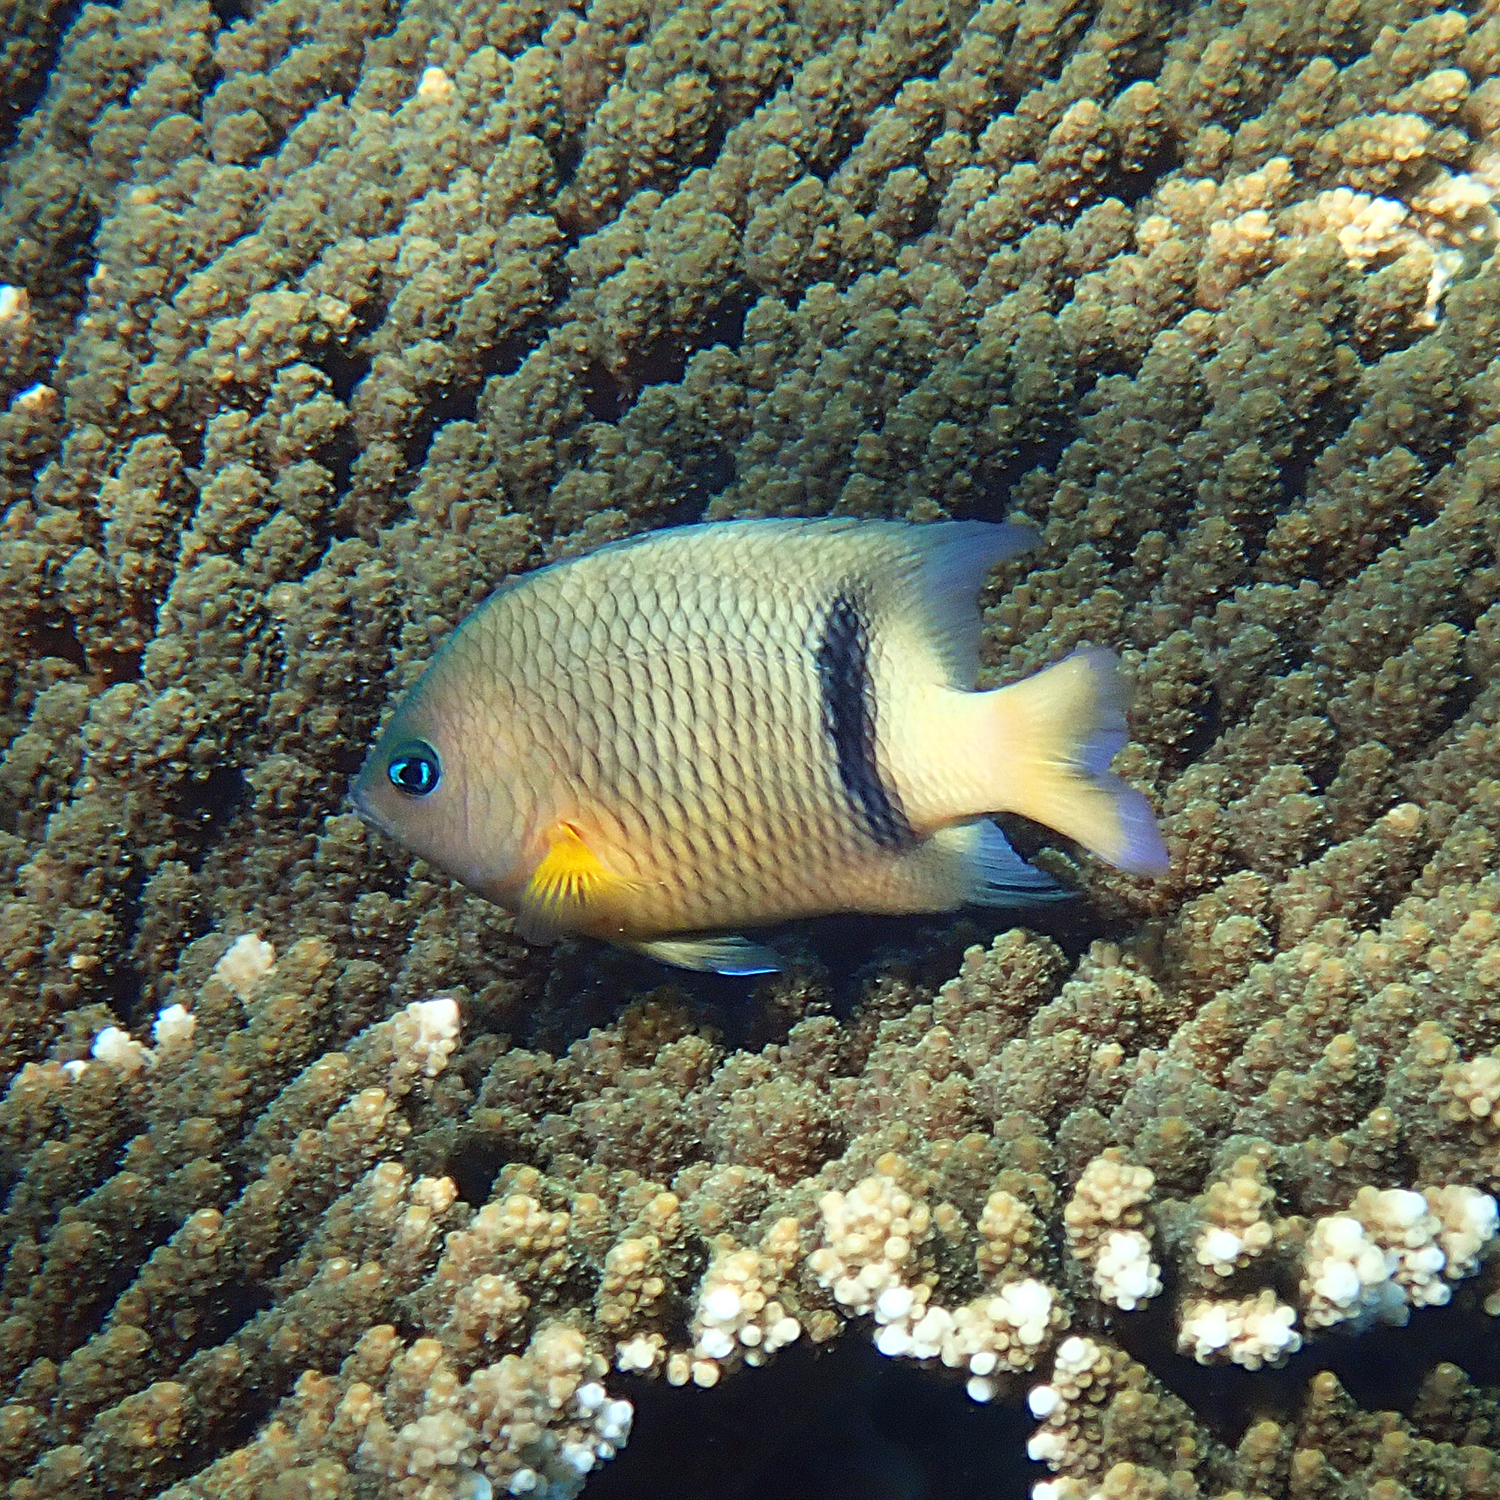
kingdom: Animalia
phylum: Chordata
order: Perciformes
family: Pomacentridae
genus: Plectroglyphidodon
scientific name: Plectroglyphidodon dickii
